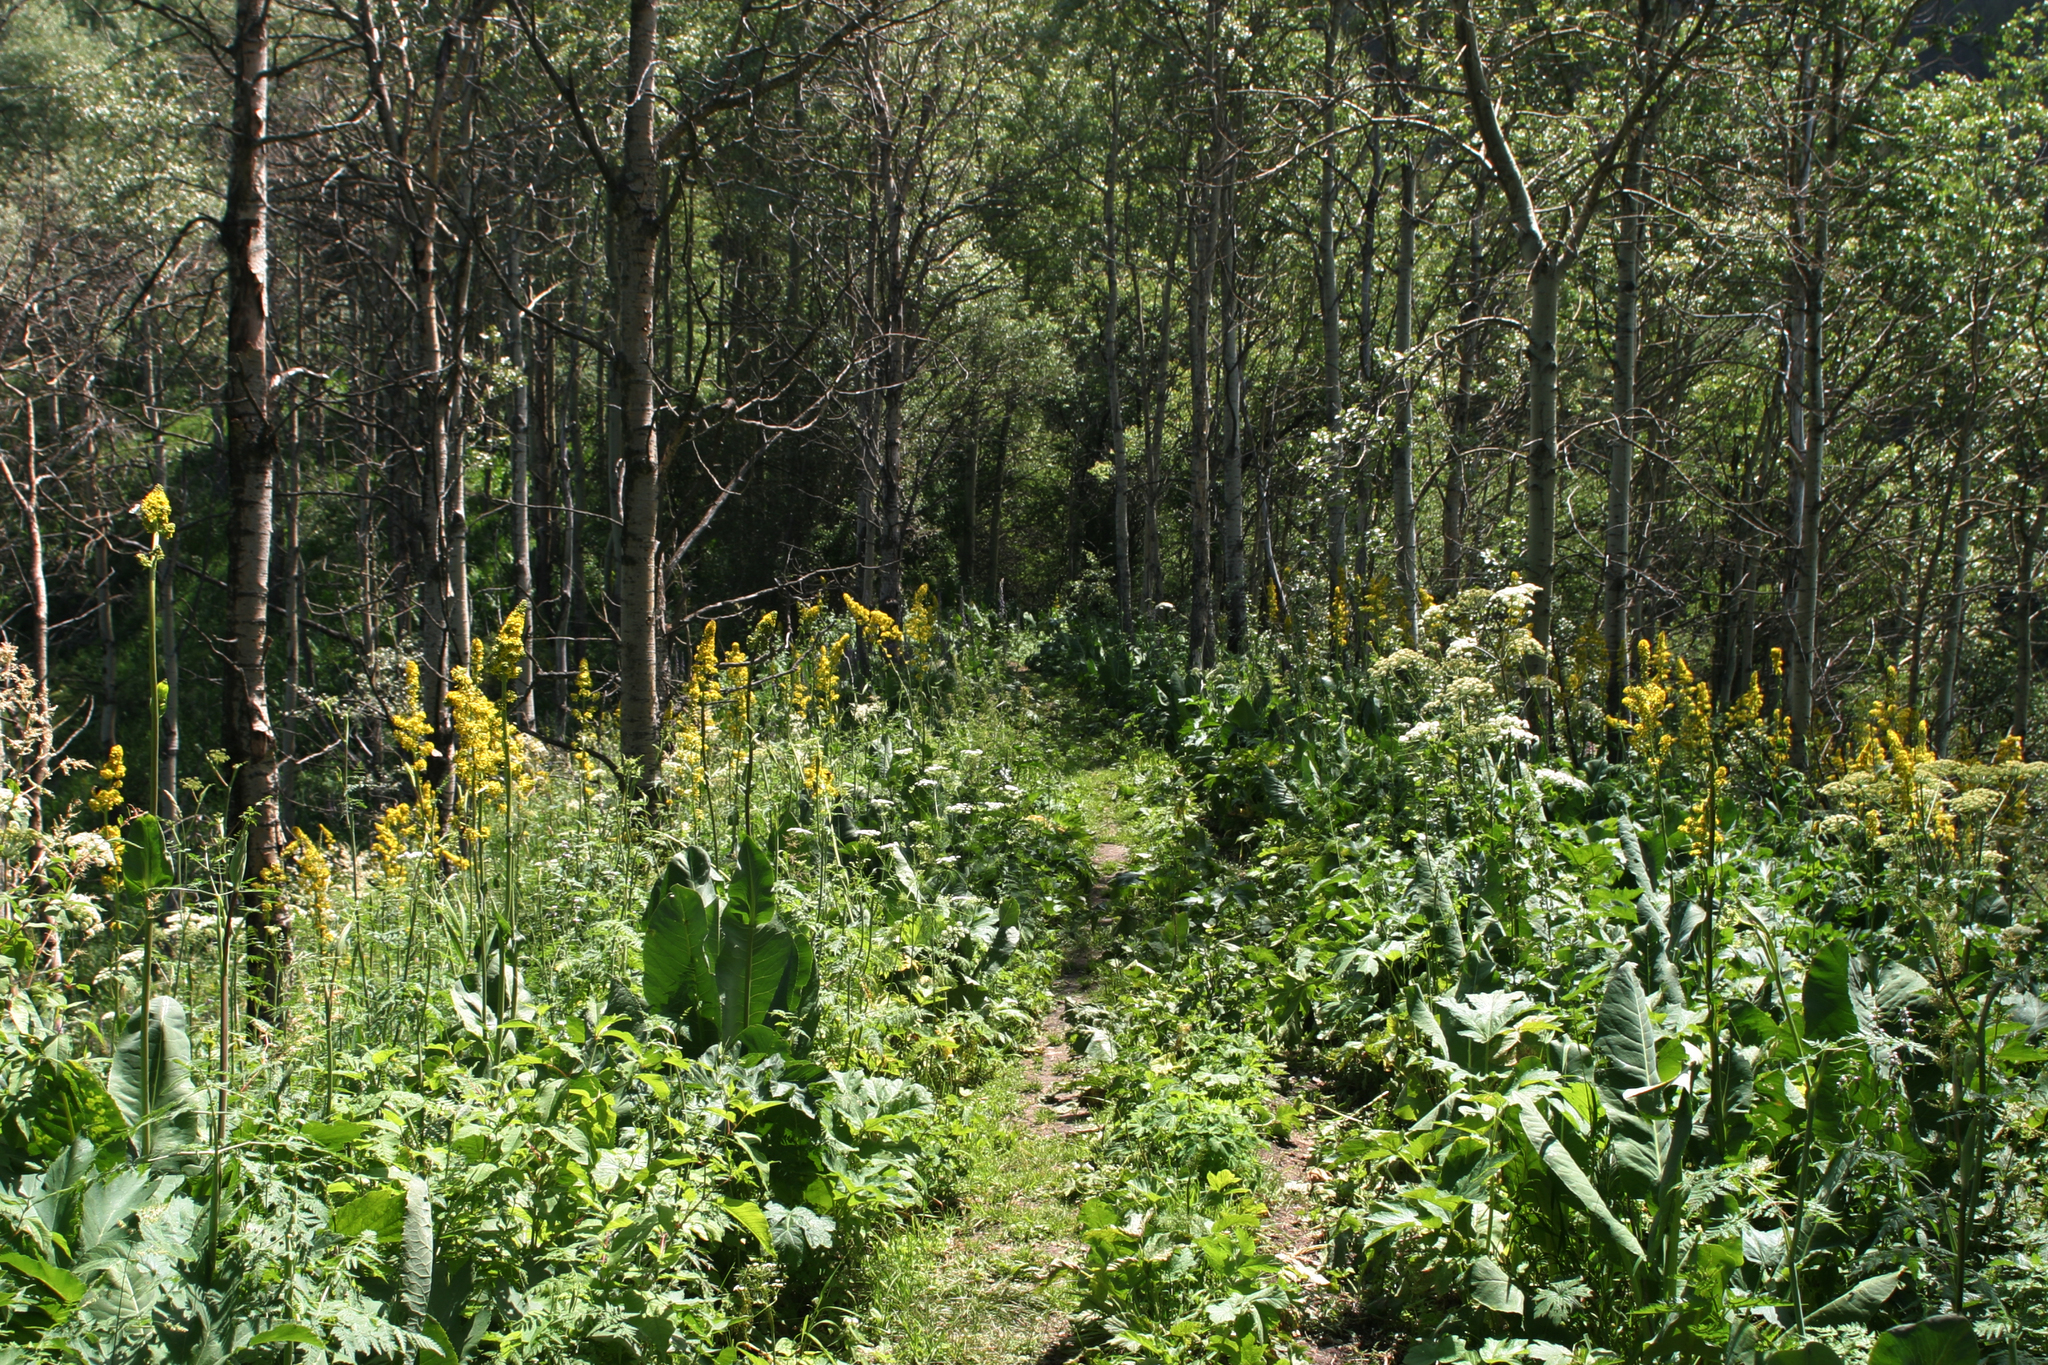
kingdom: Plantae
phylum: Tracheophyta
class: Magnoliopsida
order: Asterales
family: Asteraceae
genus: Ligularia
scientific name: Ligularia heterophylla
